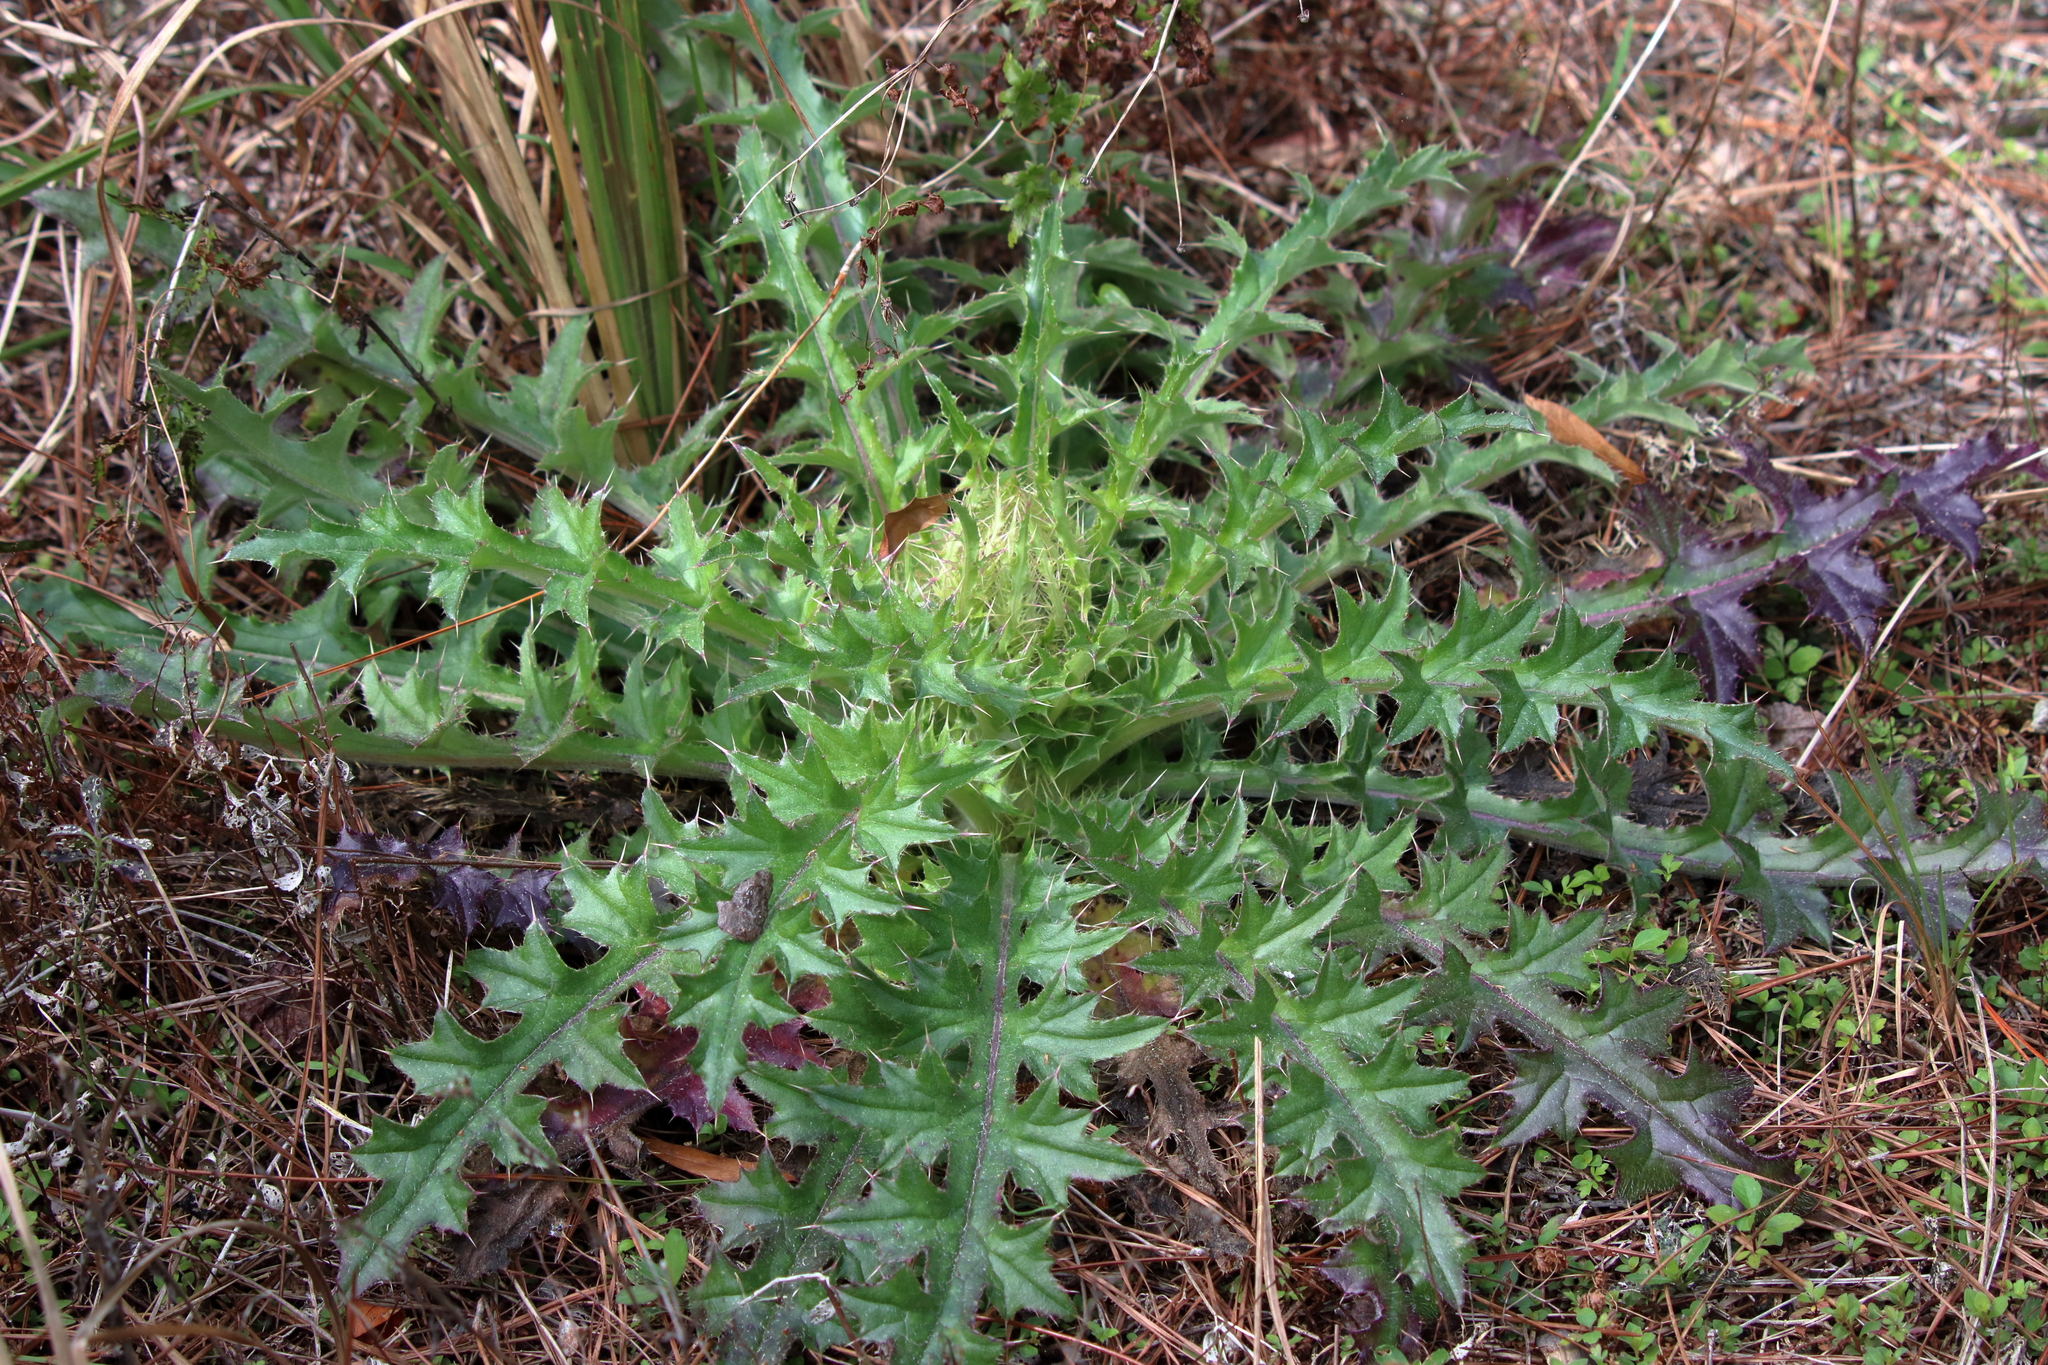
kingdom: Plantae
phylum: Tracheophyta
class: Magnoliopsida
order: Asterales
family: Asteraceae
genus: Cirsium
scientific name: Cirsium horridulum
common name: Bristly thistle
